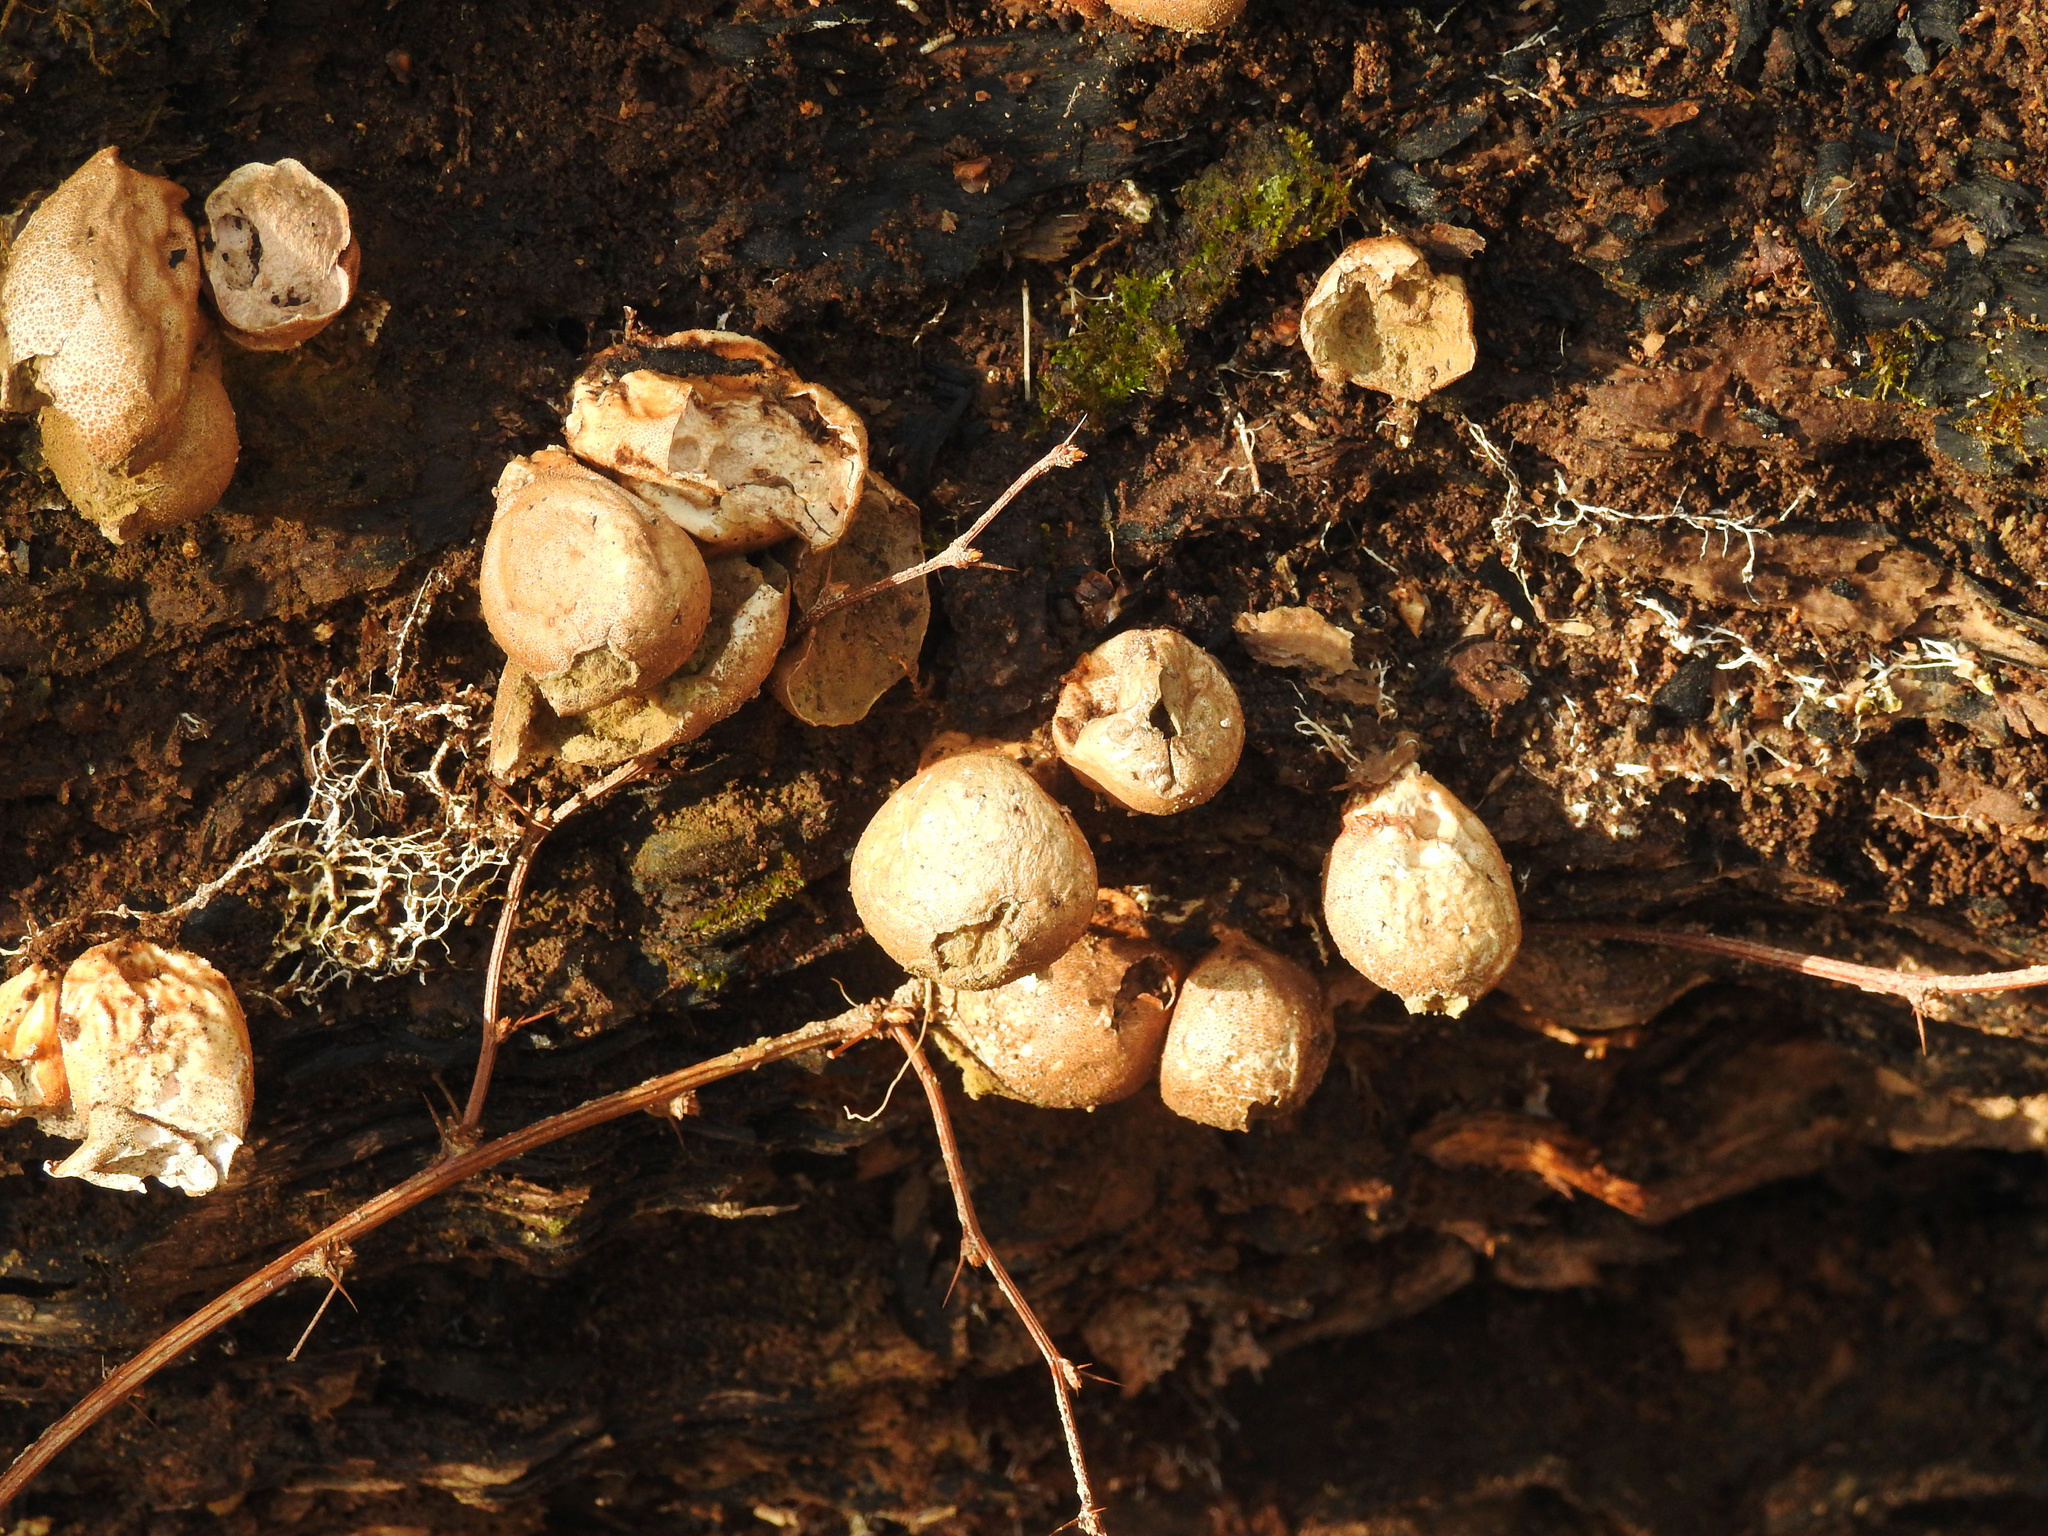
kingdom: Fungi
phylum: Basidiomycota
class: Agaricomycetes
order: Agaricales
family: Lycoperdaceae
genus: Apioperdon
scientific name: Apioperdon pyriforme
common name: Pear-shaped puffball
